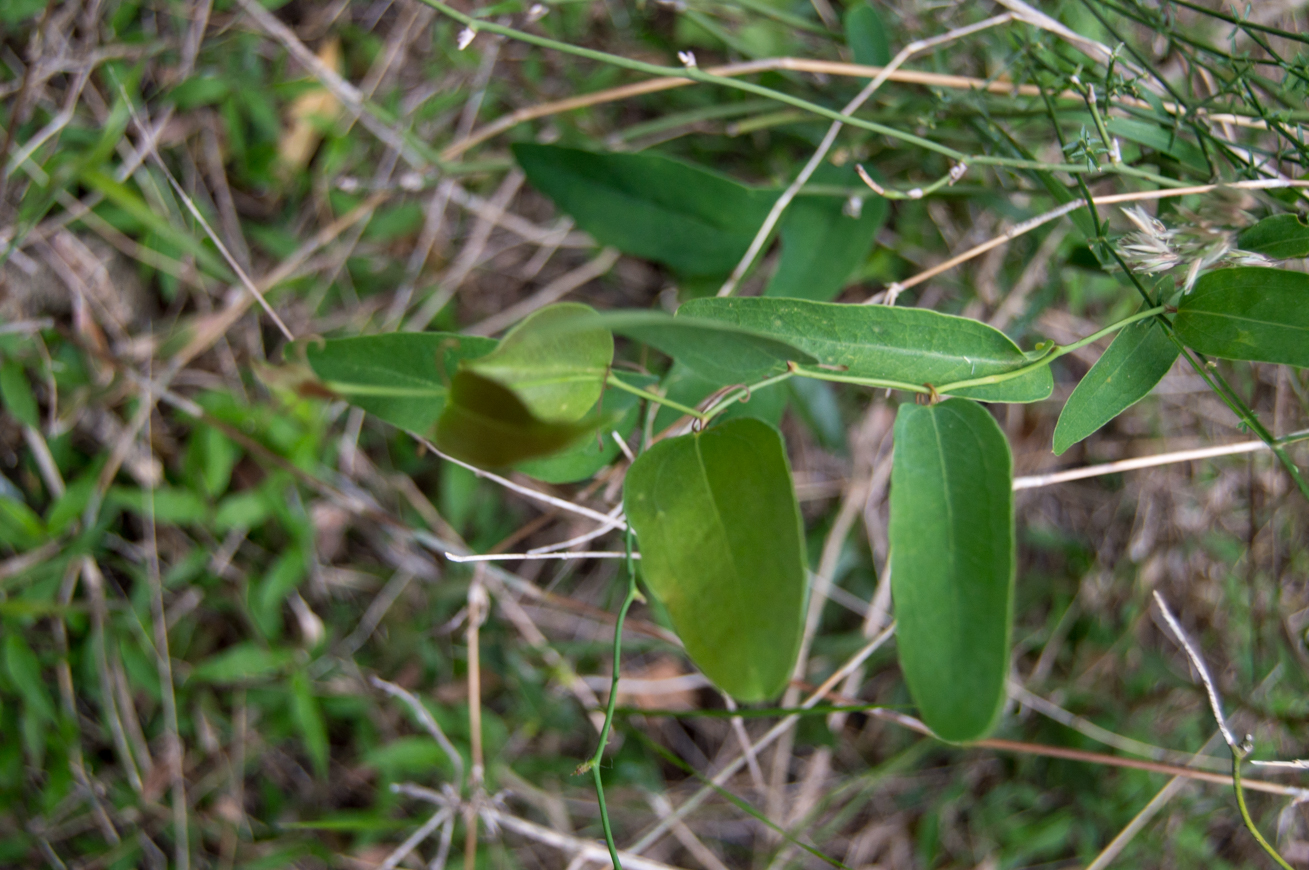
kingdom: Plantae
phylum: Tracheophyta
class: Liliopsida
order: Liliales
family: Smilacaceae
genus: Smilax
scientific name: Smilax campestris
